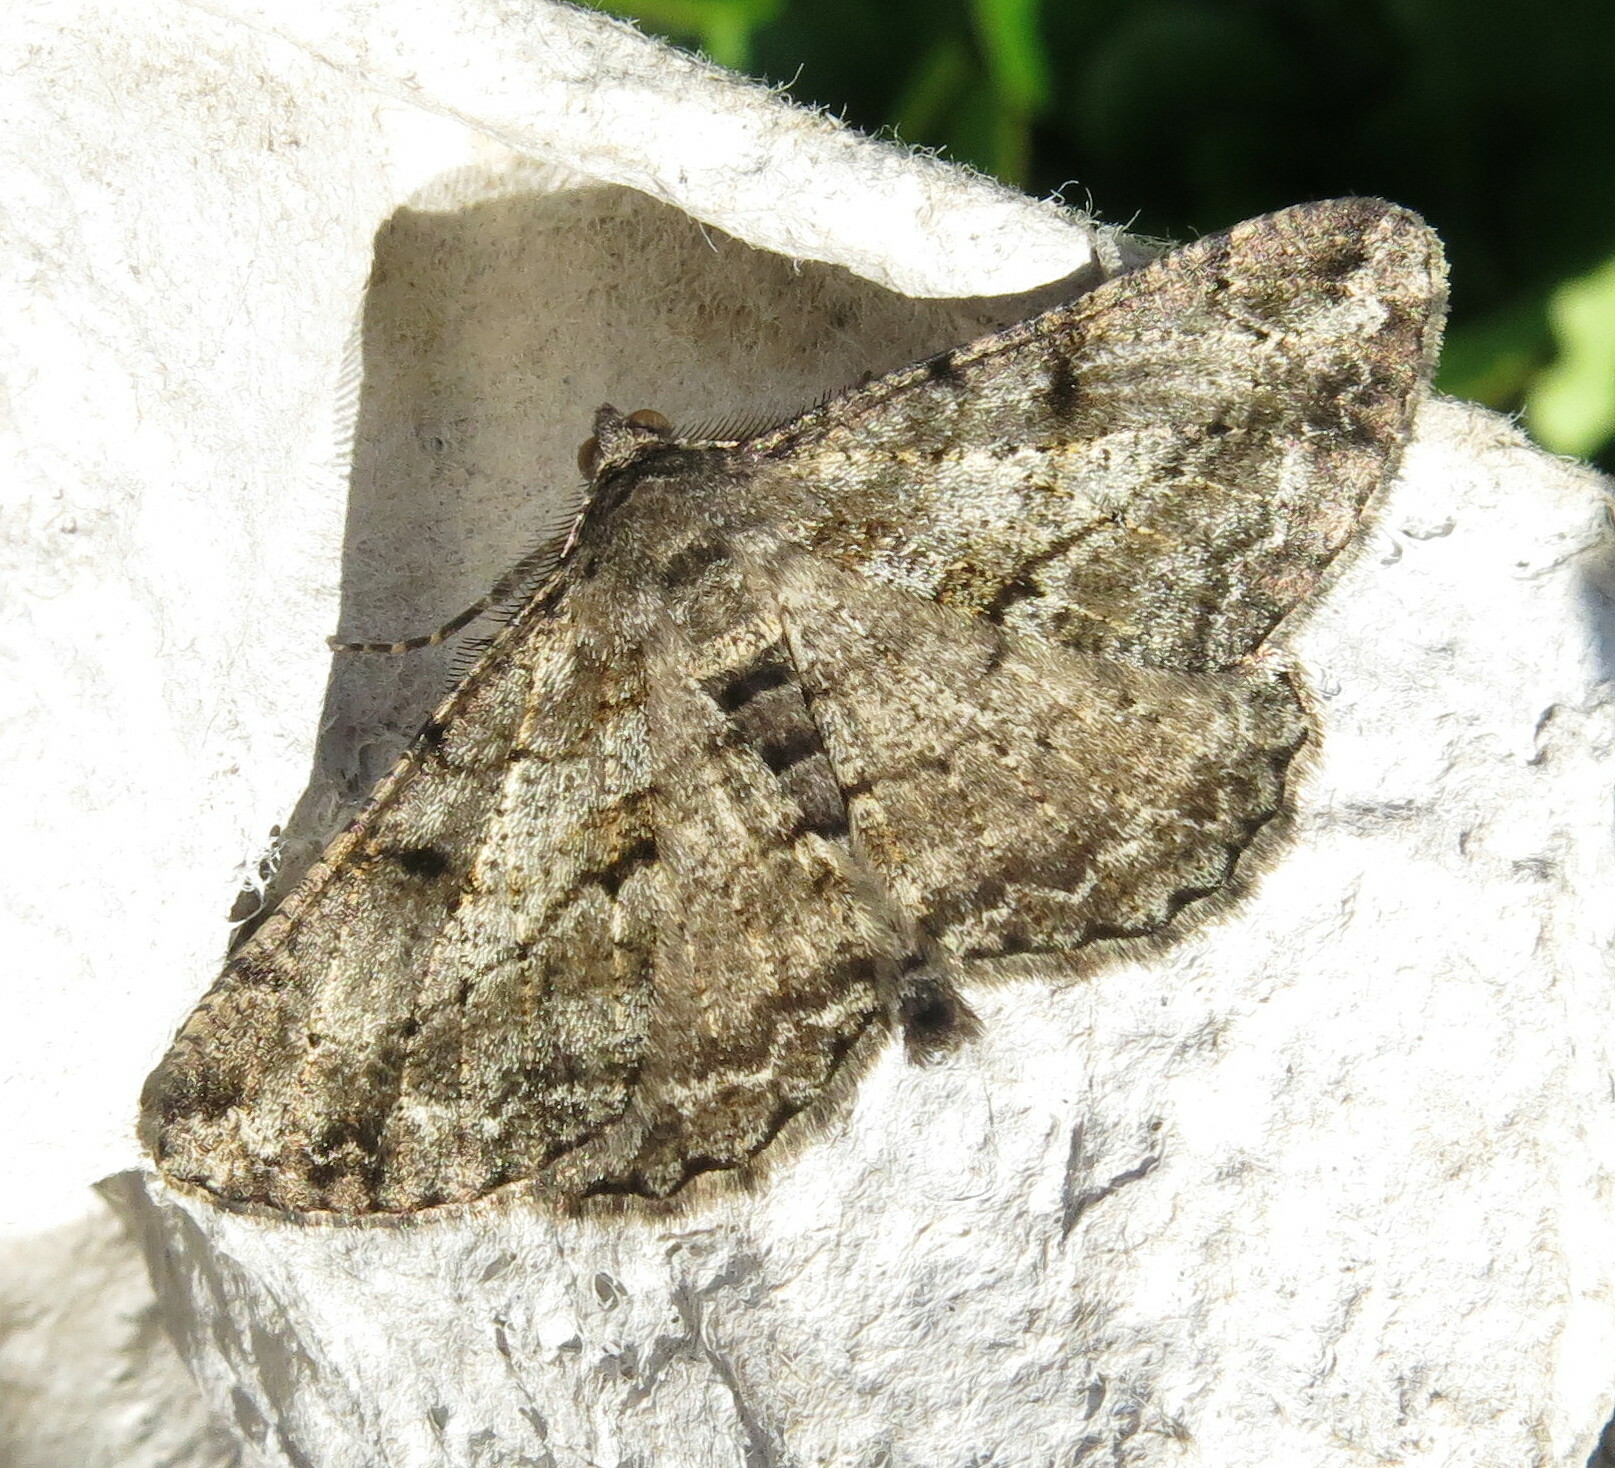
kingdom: Animalia
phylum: Arthropoda
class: Insecta
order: Lepidoptera
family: Geometridae
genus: Peribatodes
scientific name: Peribatodes rhomboidaria
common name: Willow beauty
